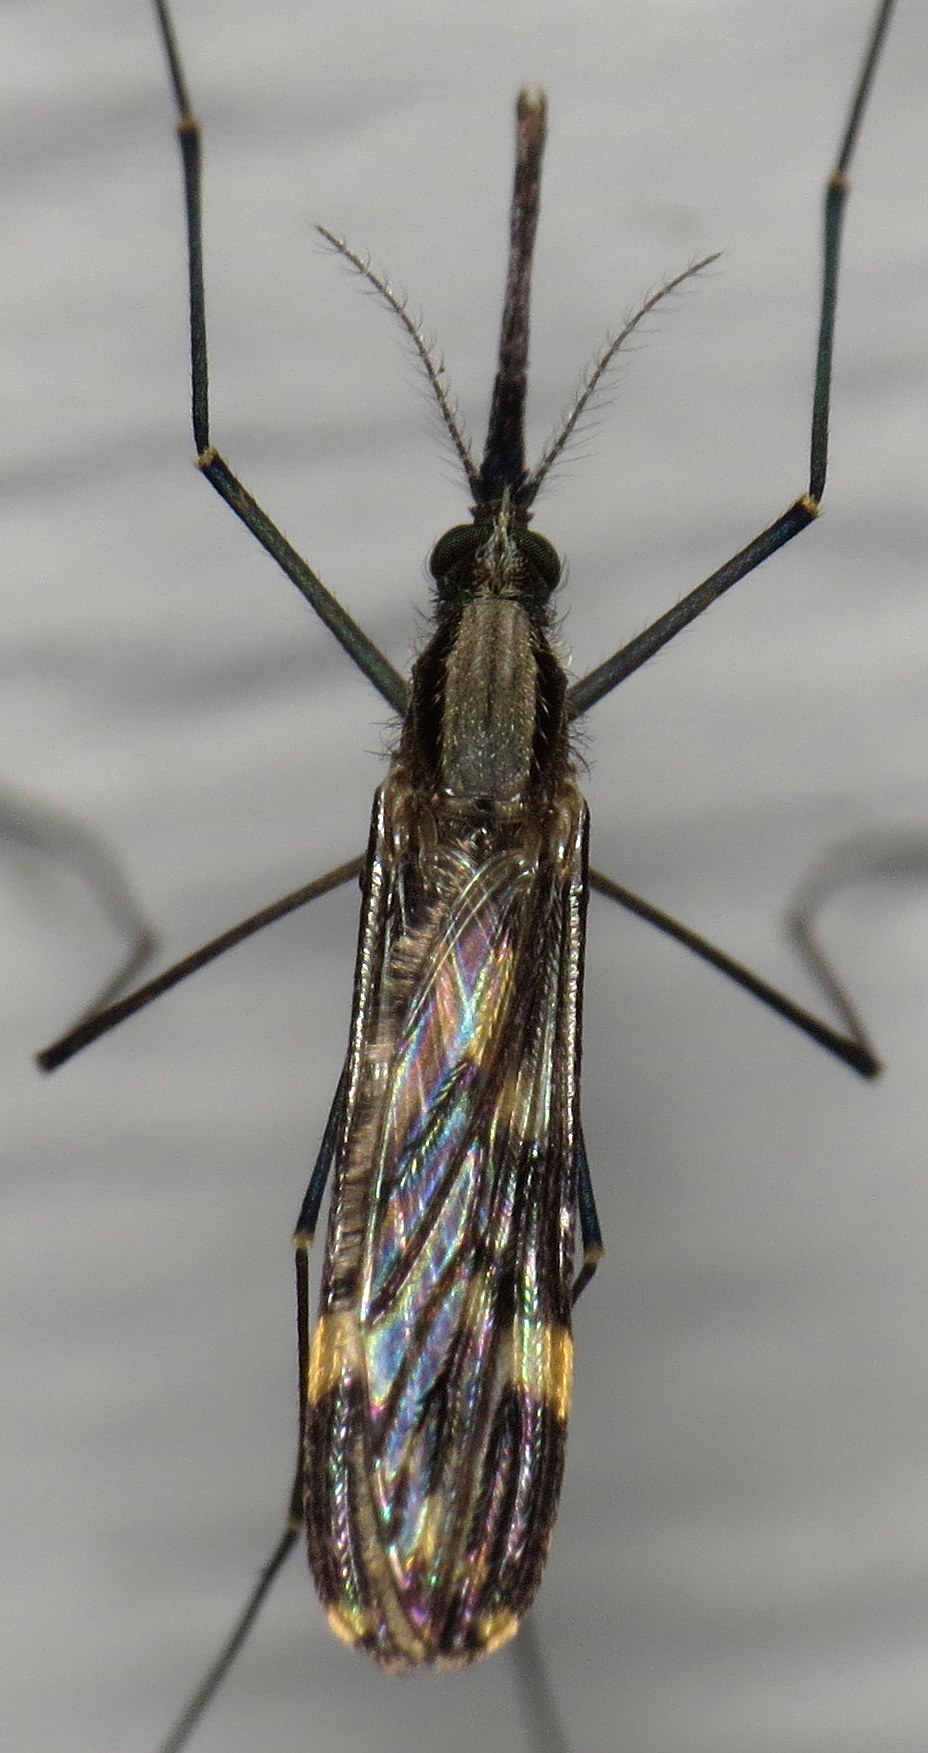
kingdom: Animalia
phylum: Arthropoda
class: Insecta
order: Diptera
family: Culicidae
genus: Anopheles
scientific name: Anopheles punctipennis
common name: Woodland malaria mosquito
